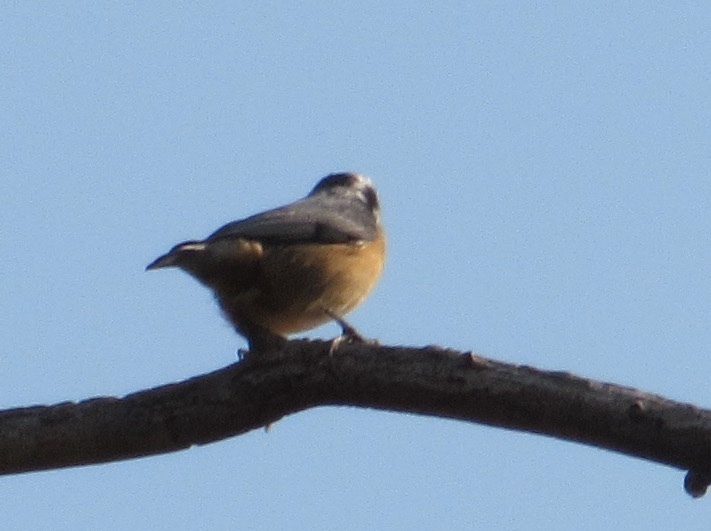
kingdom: Animalia
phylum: Chordata
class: Aves
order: Passeriformes
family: Sittidae
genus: Sitta
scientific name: Sitta canadensis
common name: Red-breasted nuthatch
